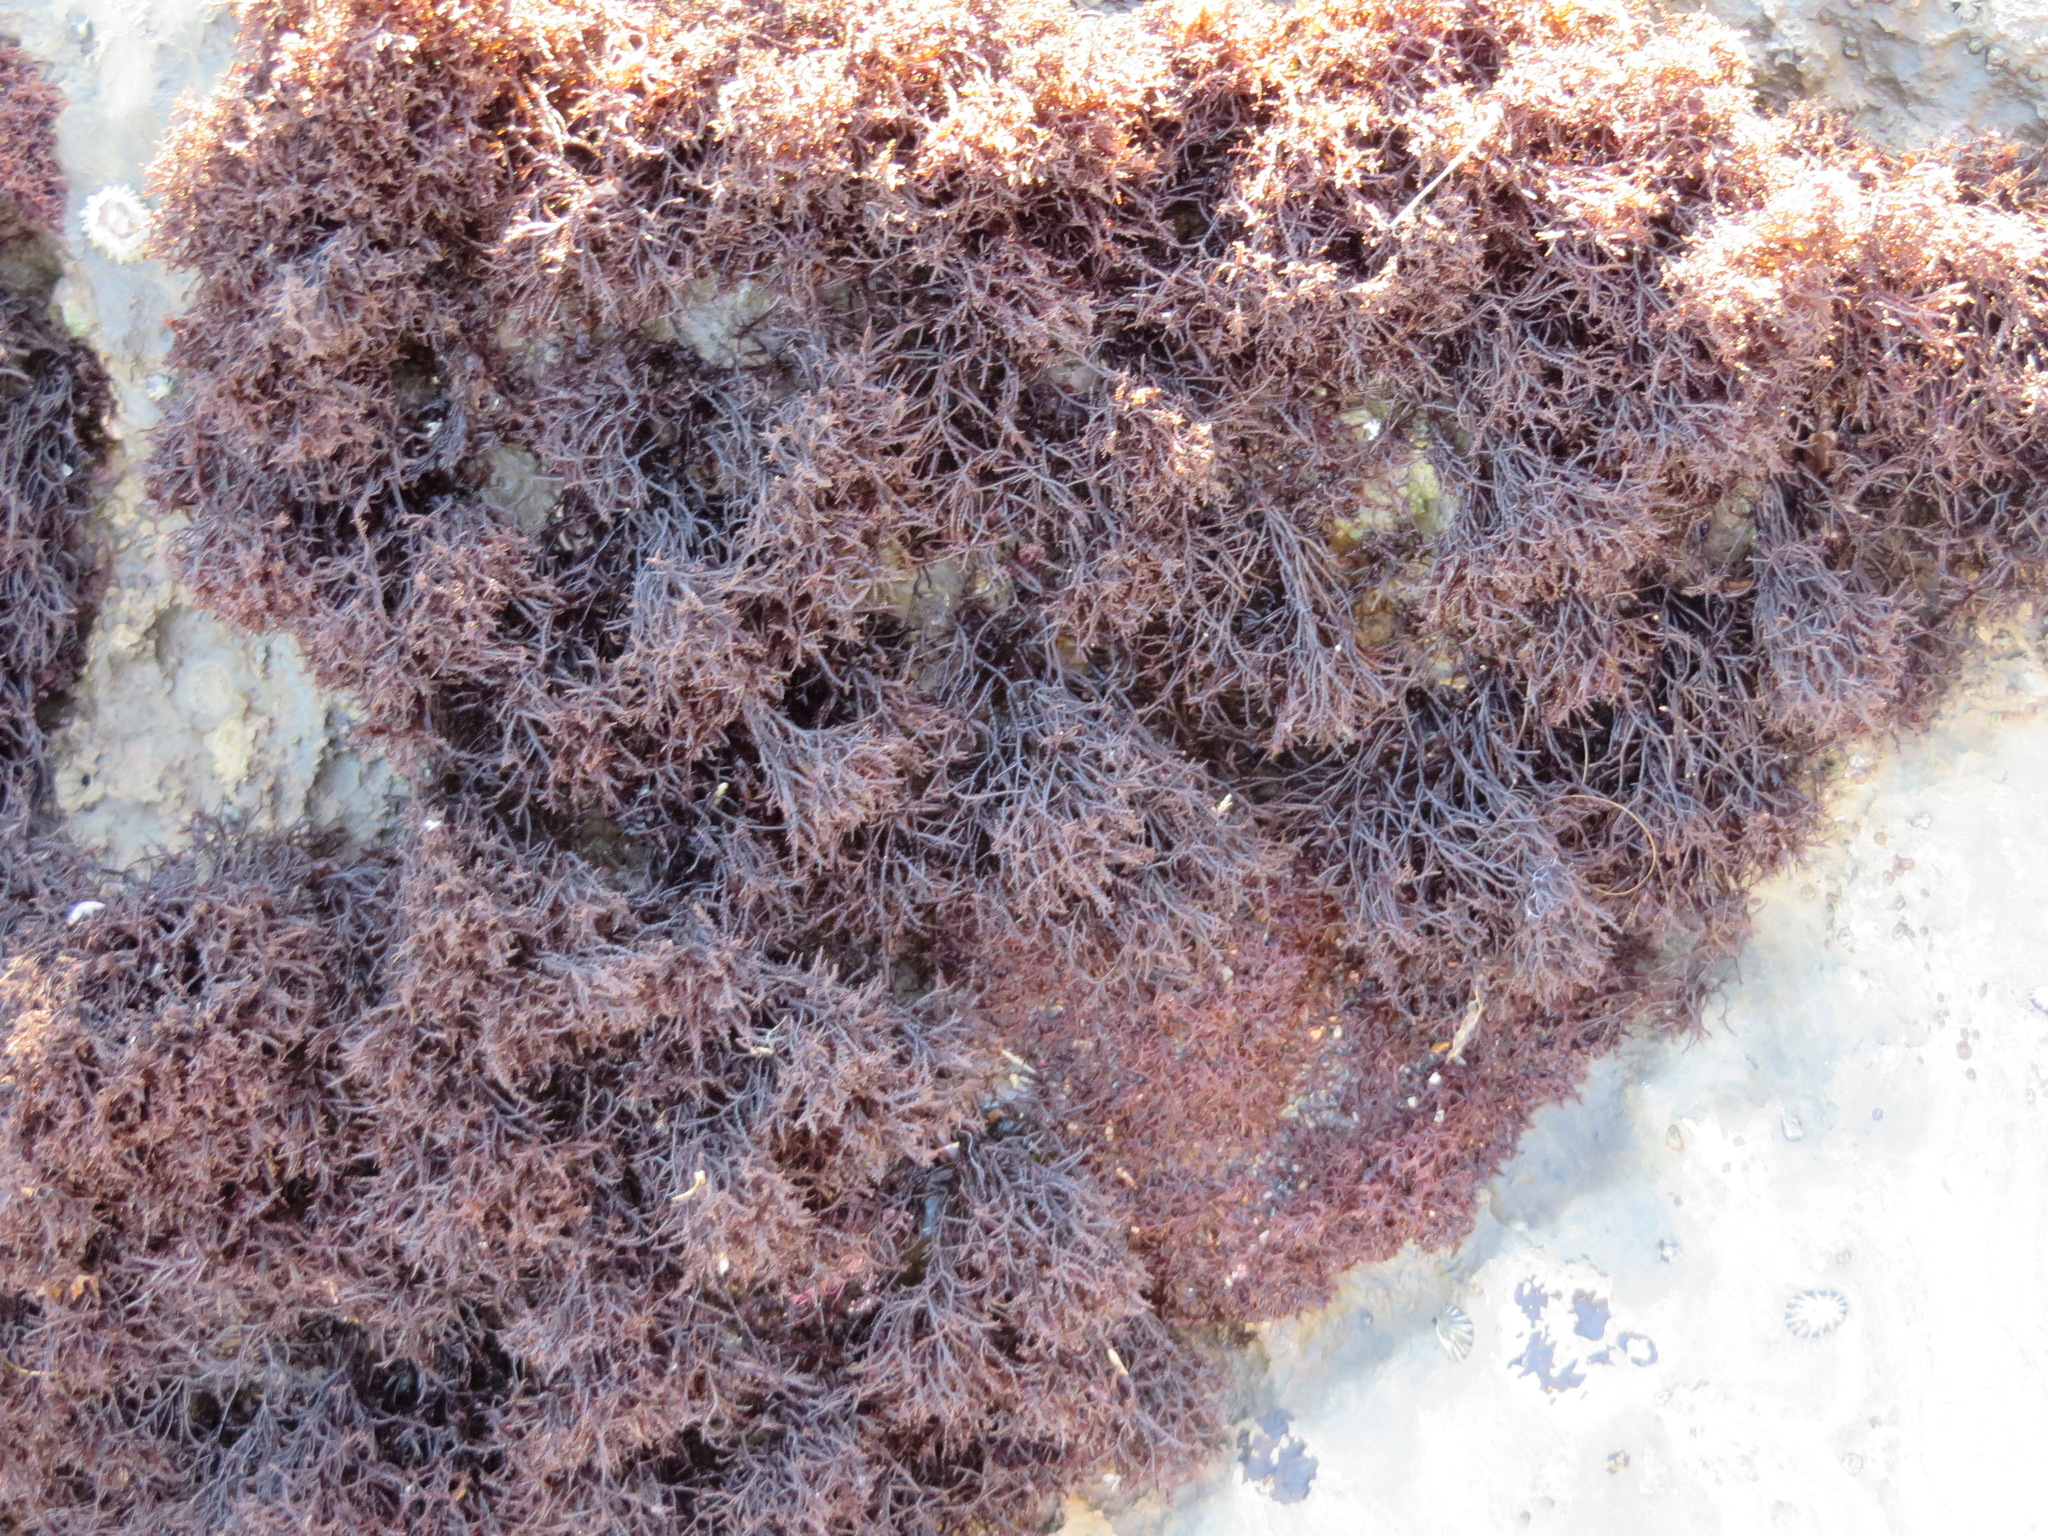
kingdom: Plantae
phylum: Rhodophyta
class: Florideophyceae
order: Gigartinales
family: Endocladiaceae
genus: Endocladia
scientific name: Endocladia muricata
